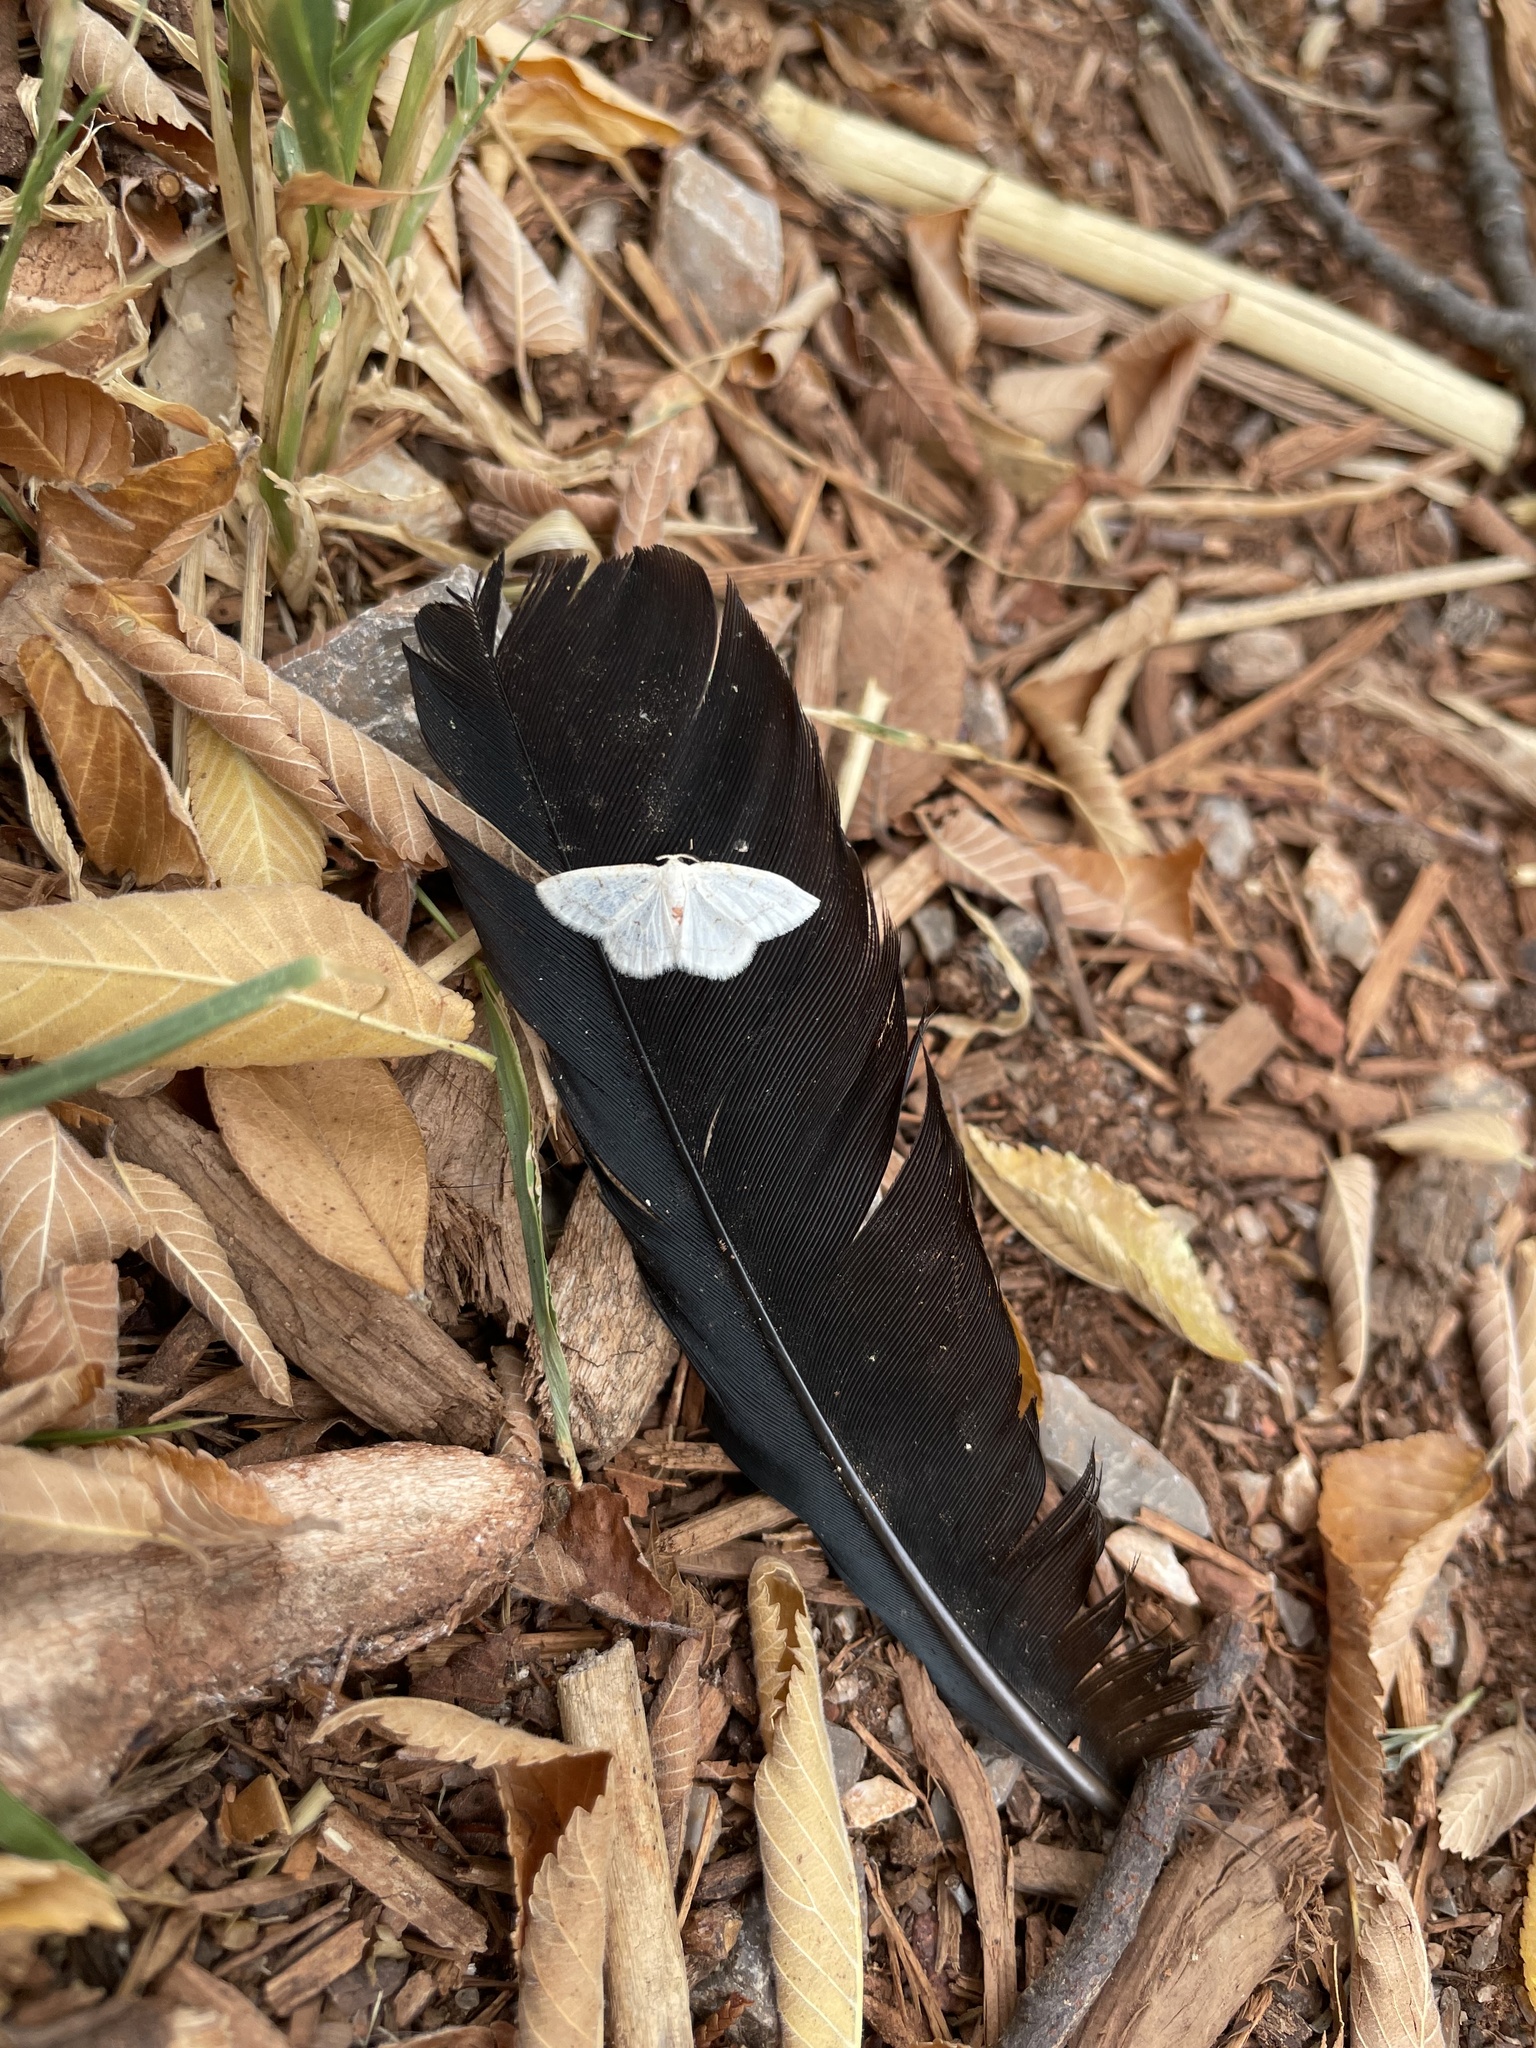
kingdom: Animalia
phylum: Arthropoda
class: Insecta
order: Lepidoptera
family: Geometridae
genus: Protitame
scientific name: Protitame virginalis
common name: Virgin moth
